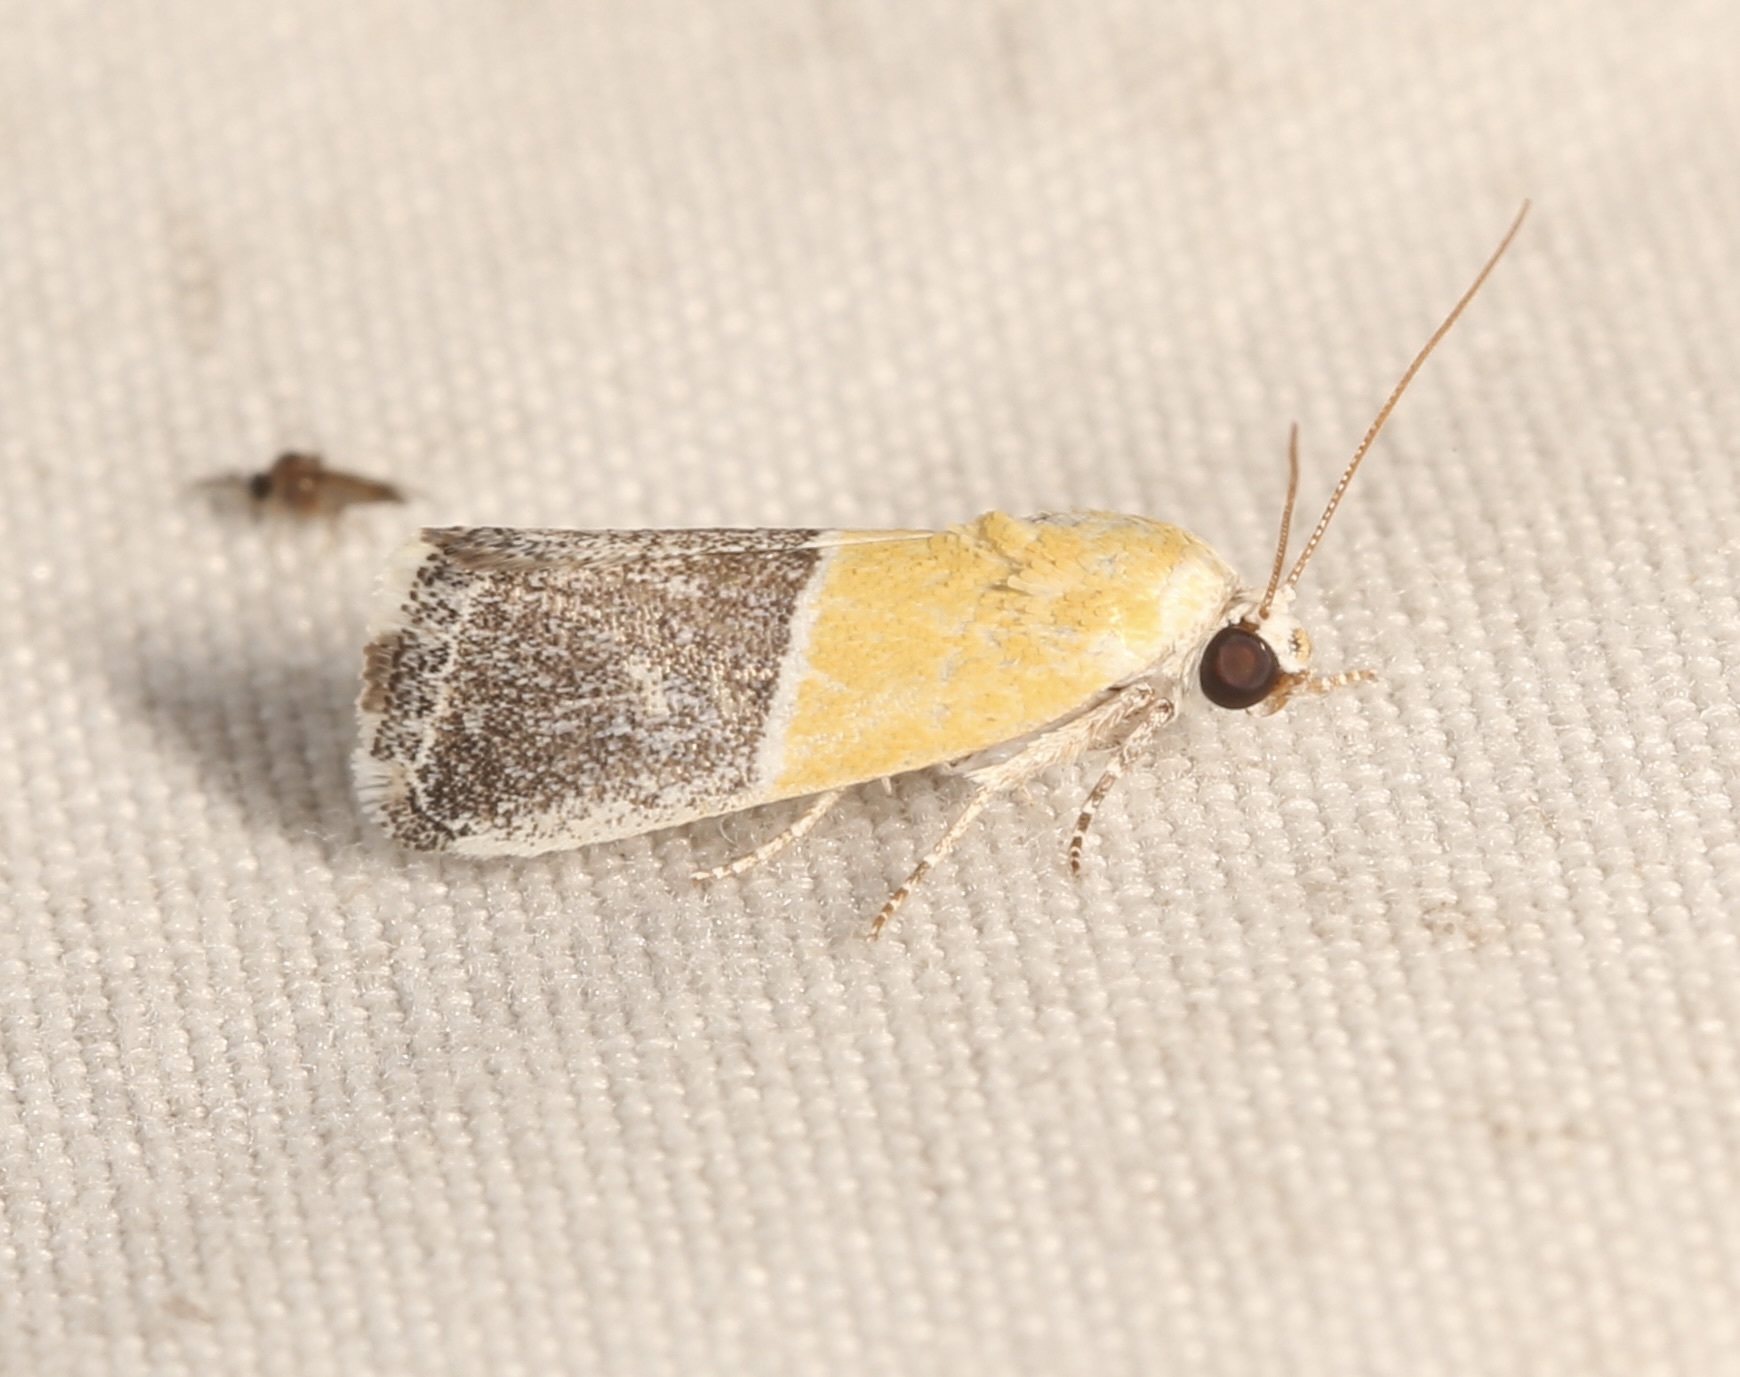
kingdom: Animalia
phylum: Arthropoda
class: Insecta
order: Lepidoptera
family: Noctuidae
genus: Acontia
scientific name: Acontia clausula
